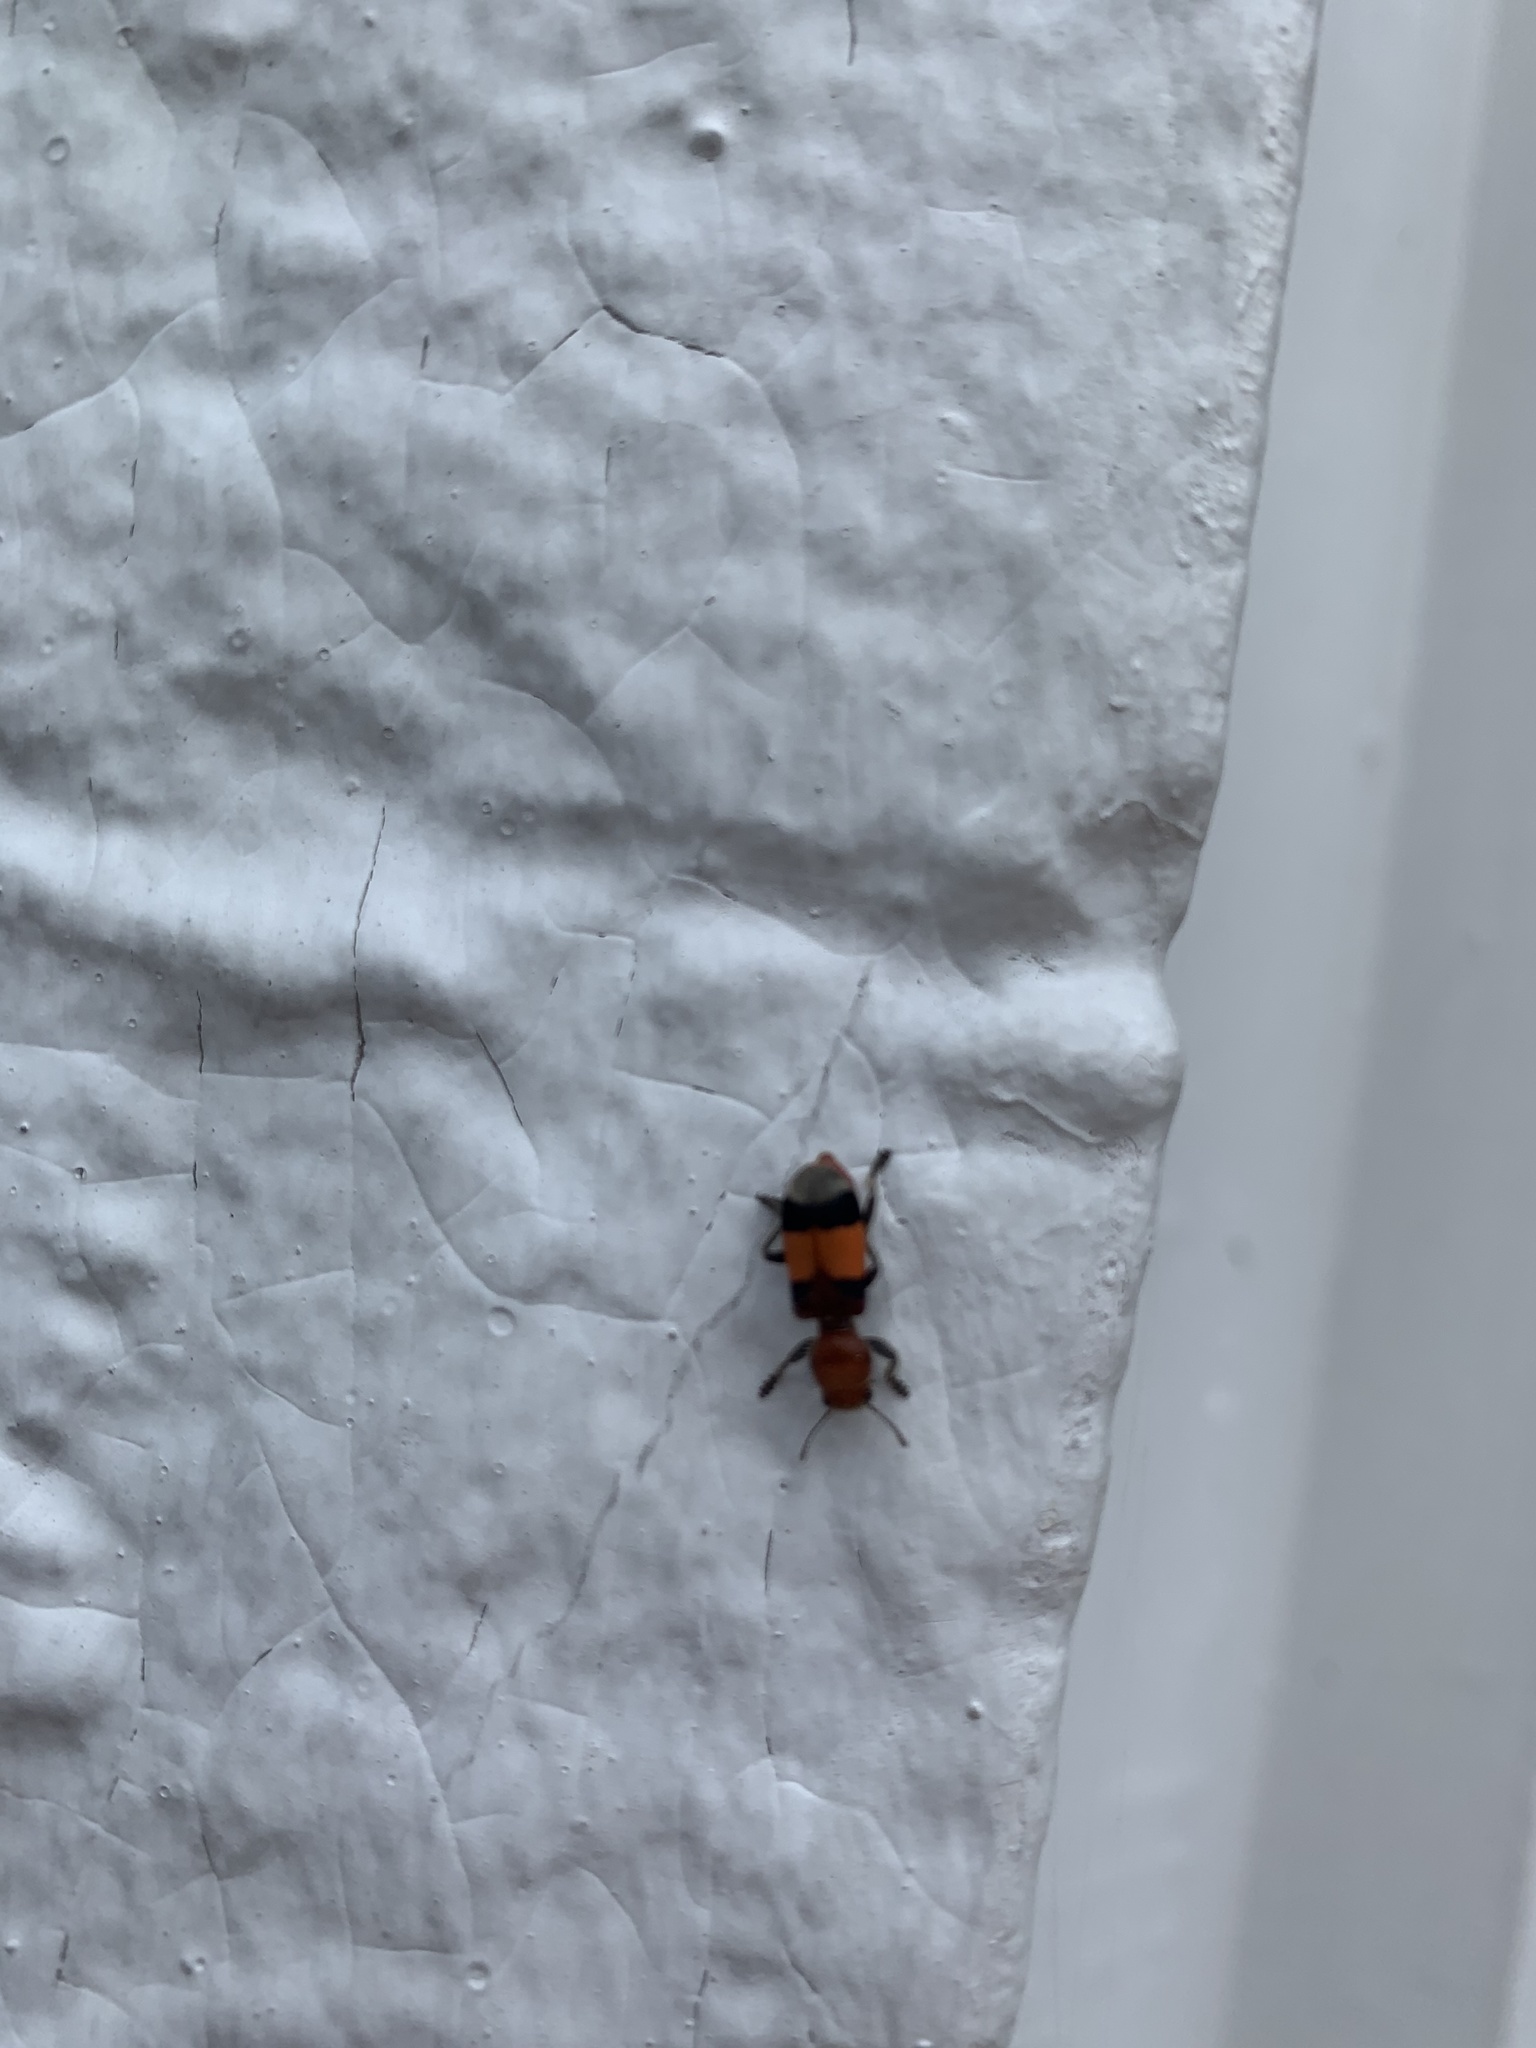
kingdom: Animalia
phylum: Arthropoda
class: Insecta
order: Coleoptera
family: Cleridae
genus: Enoclerus
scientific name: Enoclerus ichneumoneus
